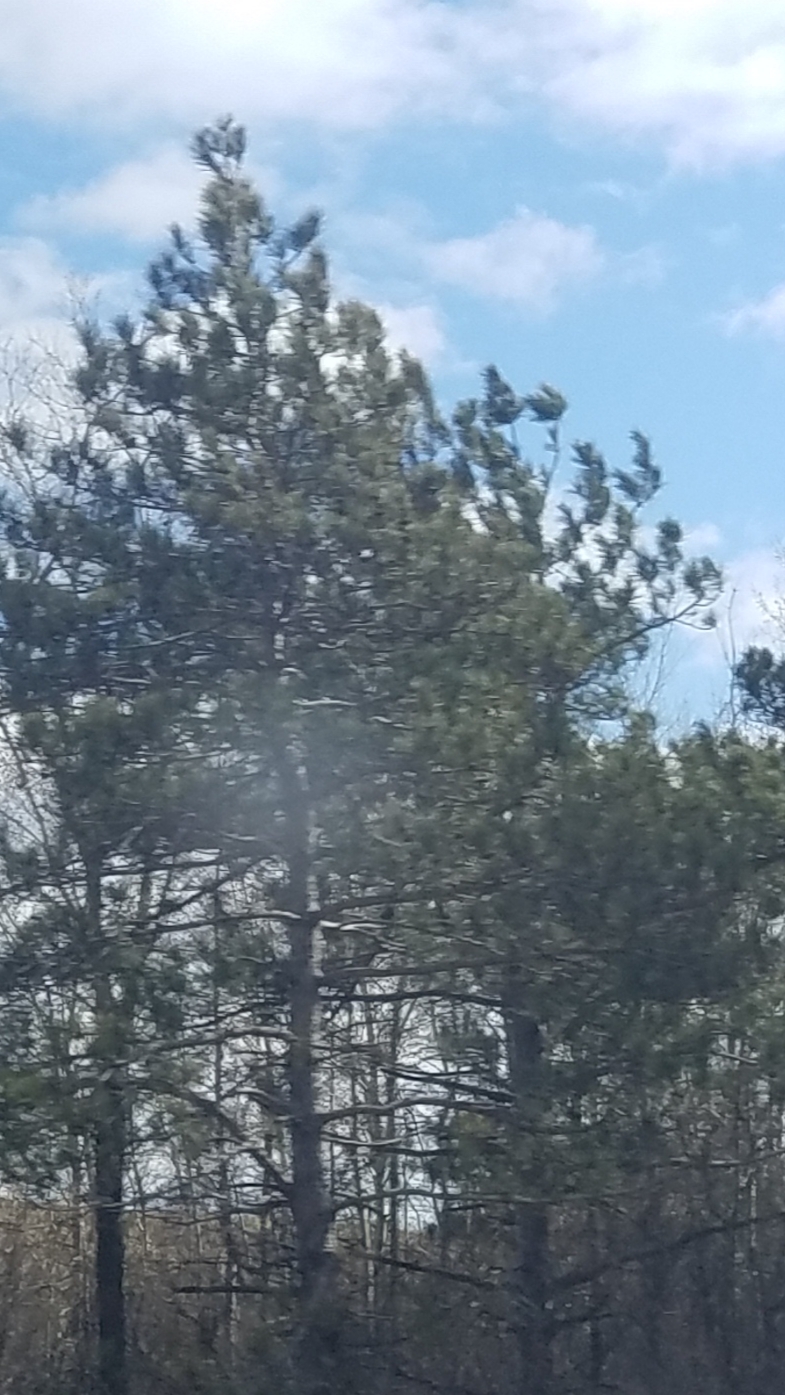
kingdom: Plantae
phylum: Tracheophyta
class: Pinopsida
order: Pinales
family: Pinaceae
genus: Pinus
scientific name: Pinus resinosa
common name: Norway pine
